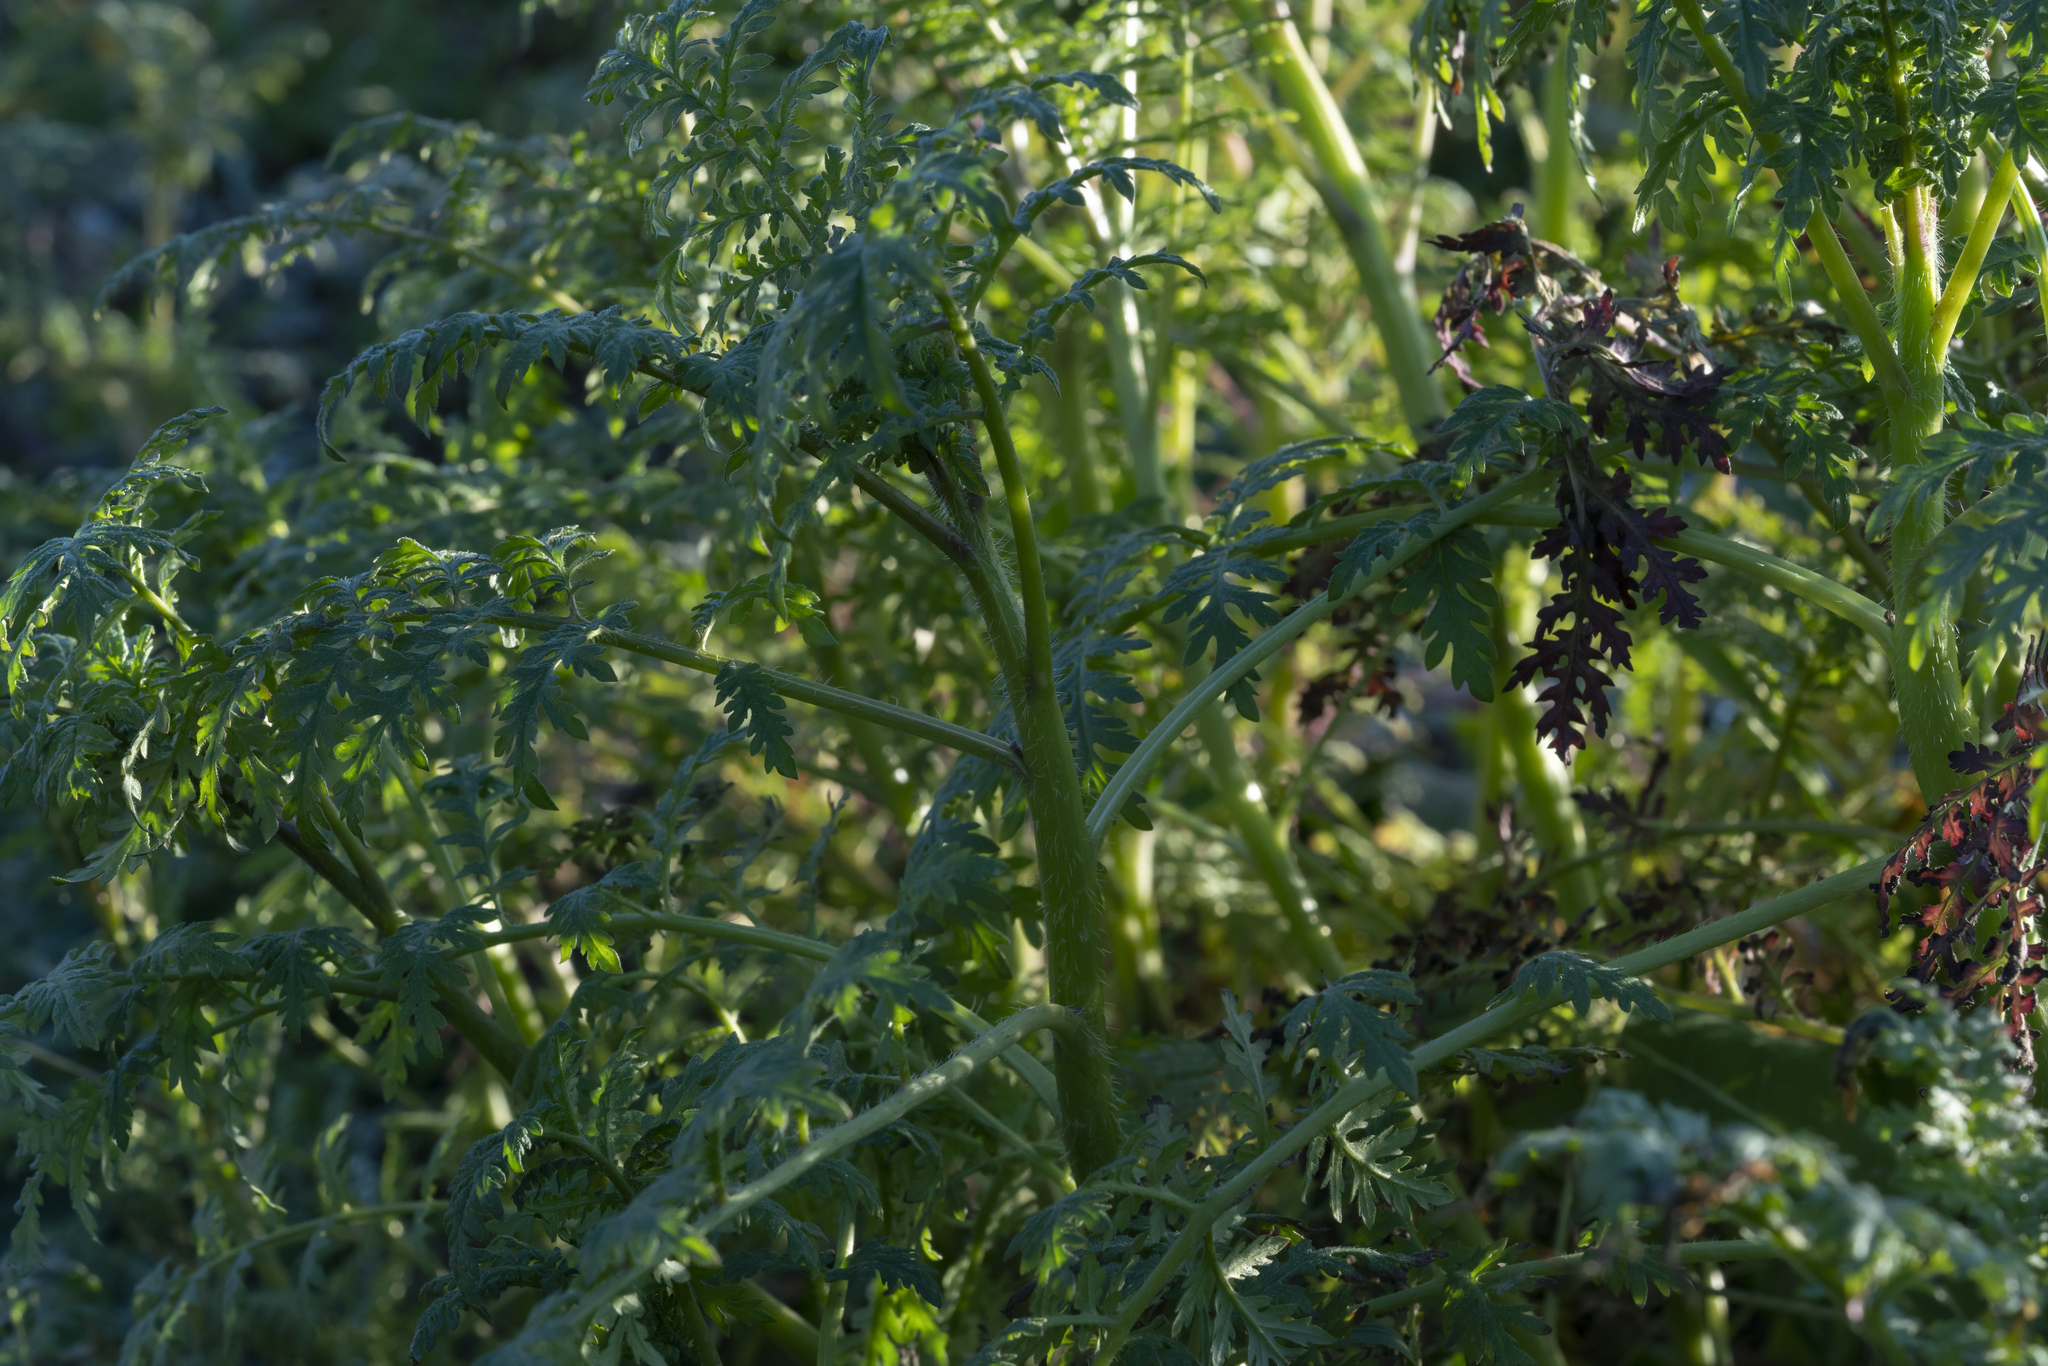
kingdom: Plantae
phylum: Tracheophyta
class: Magnoliopsida
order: Boraginales
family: Hydrophyllaceae
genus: Phacelia
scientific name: Phacelia tanacetifolia
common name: Phacelia
